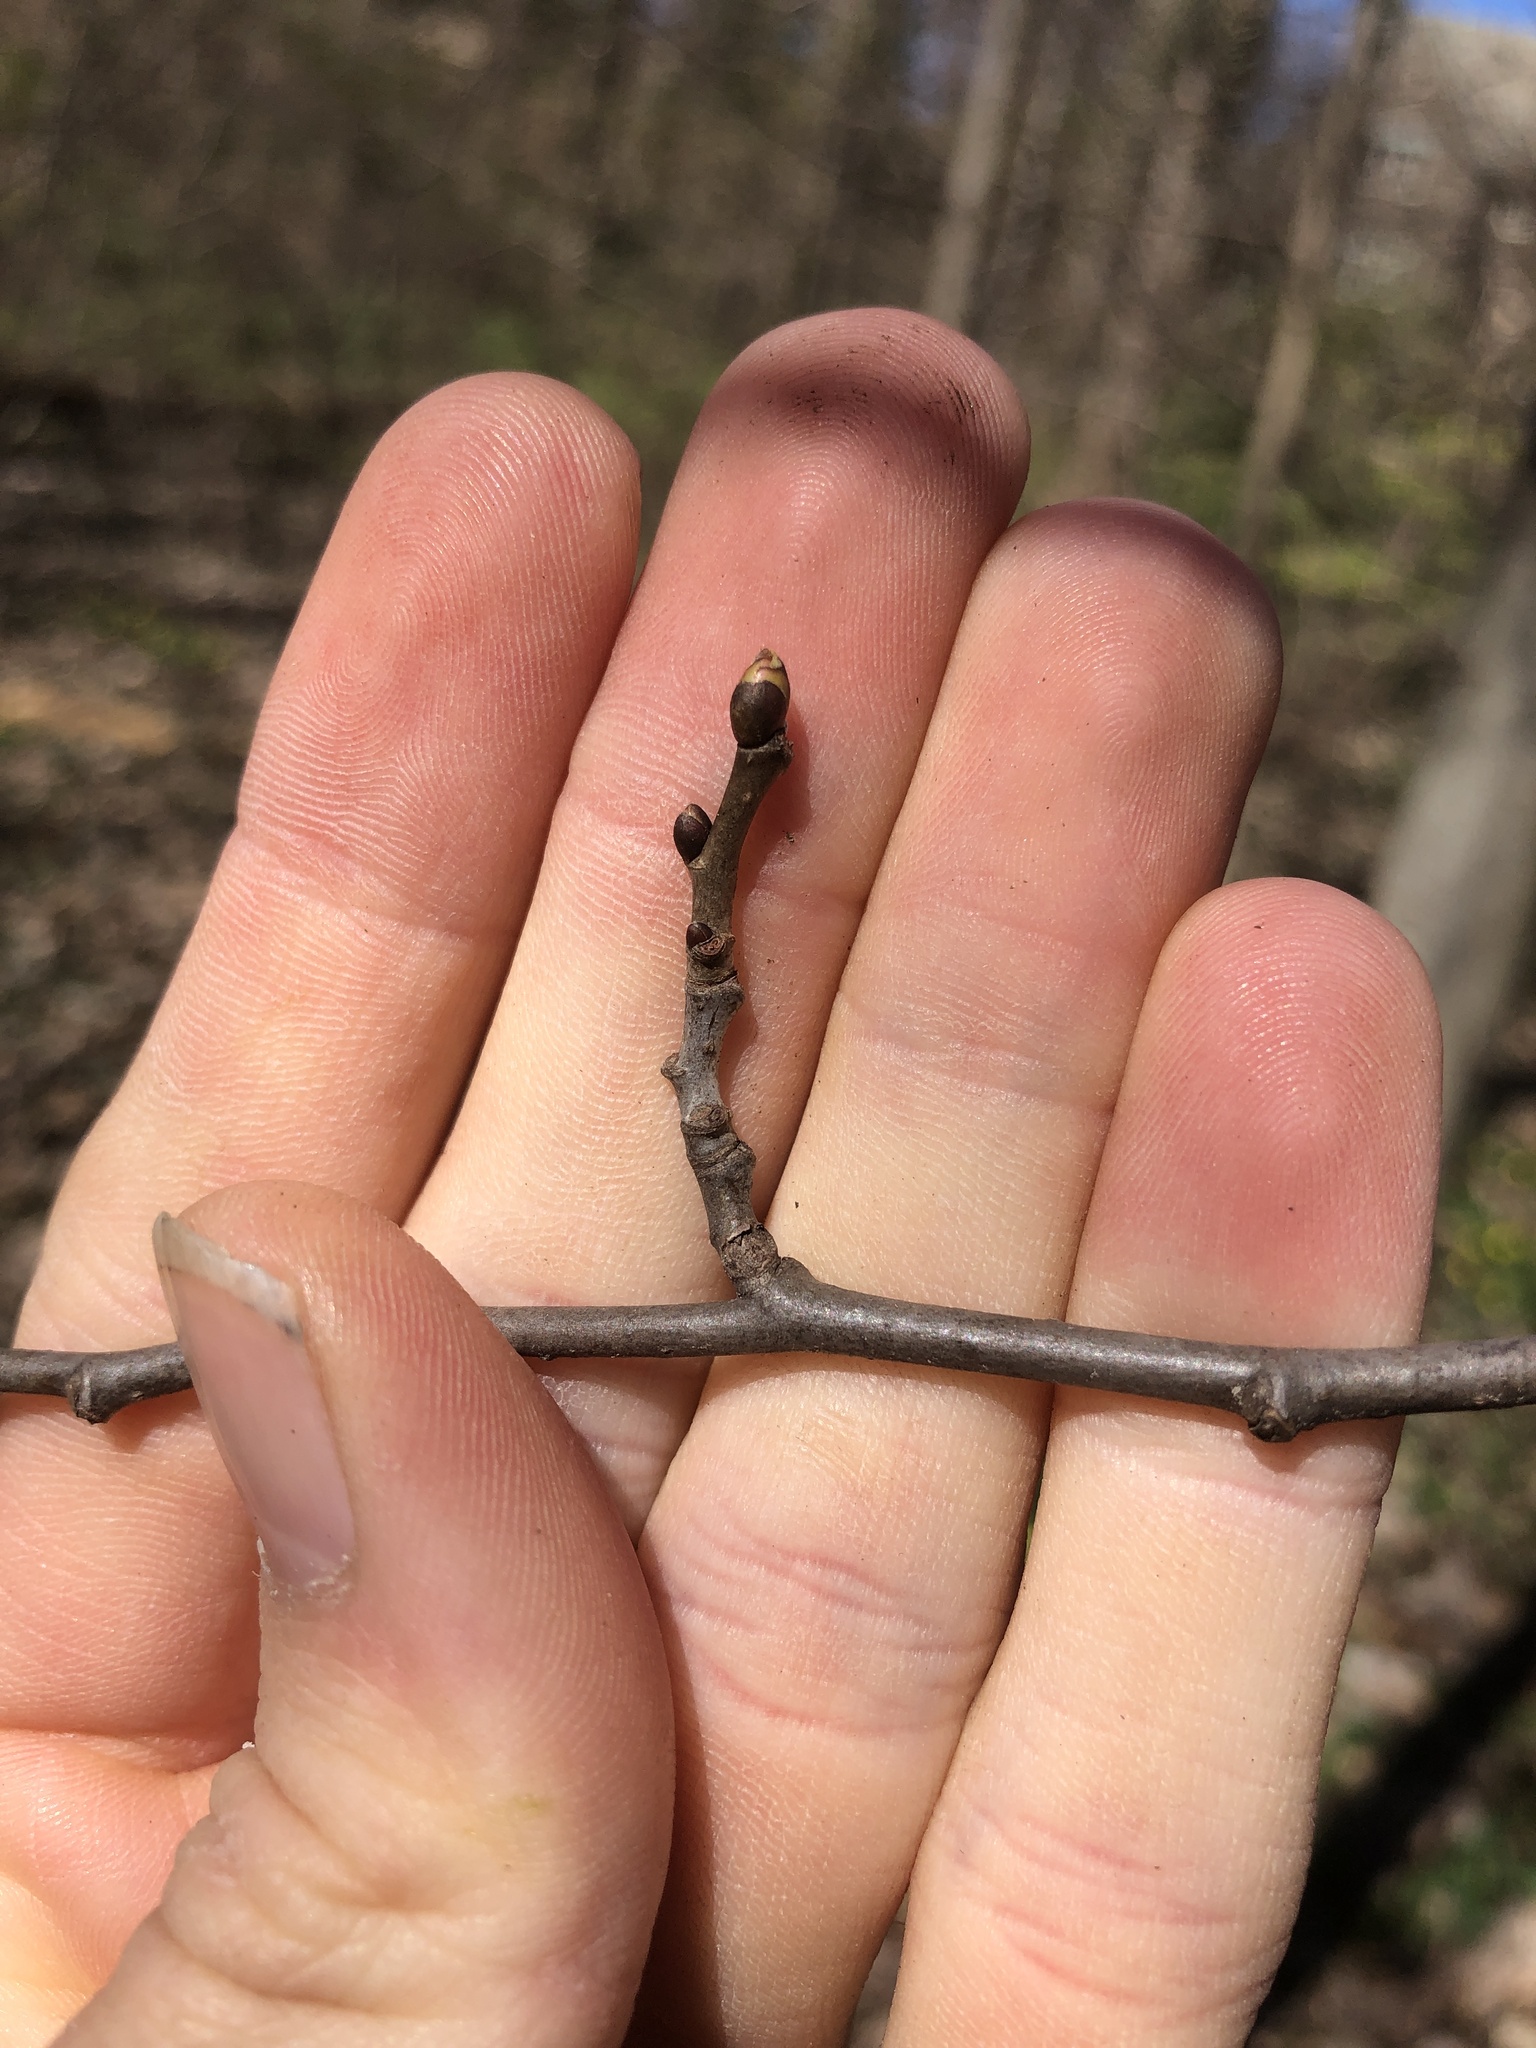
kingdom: Plantae
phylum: Tracheophyta
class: Magnoliopsida
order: Malvales
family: Malvaceae
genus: Tilia
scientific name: Tilia americana
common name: Basswood
